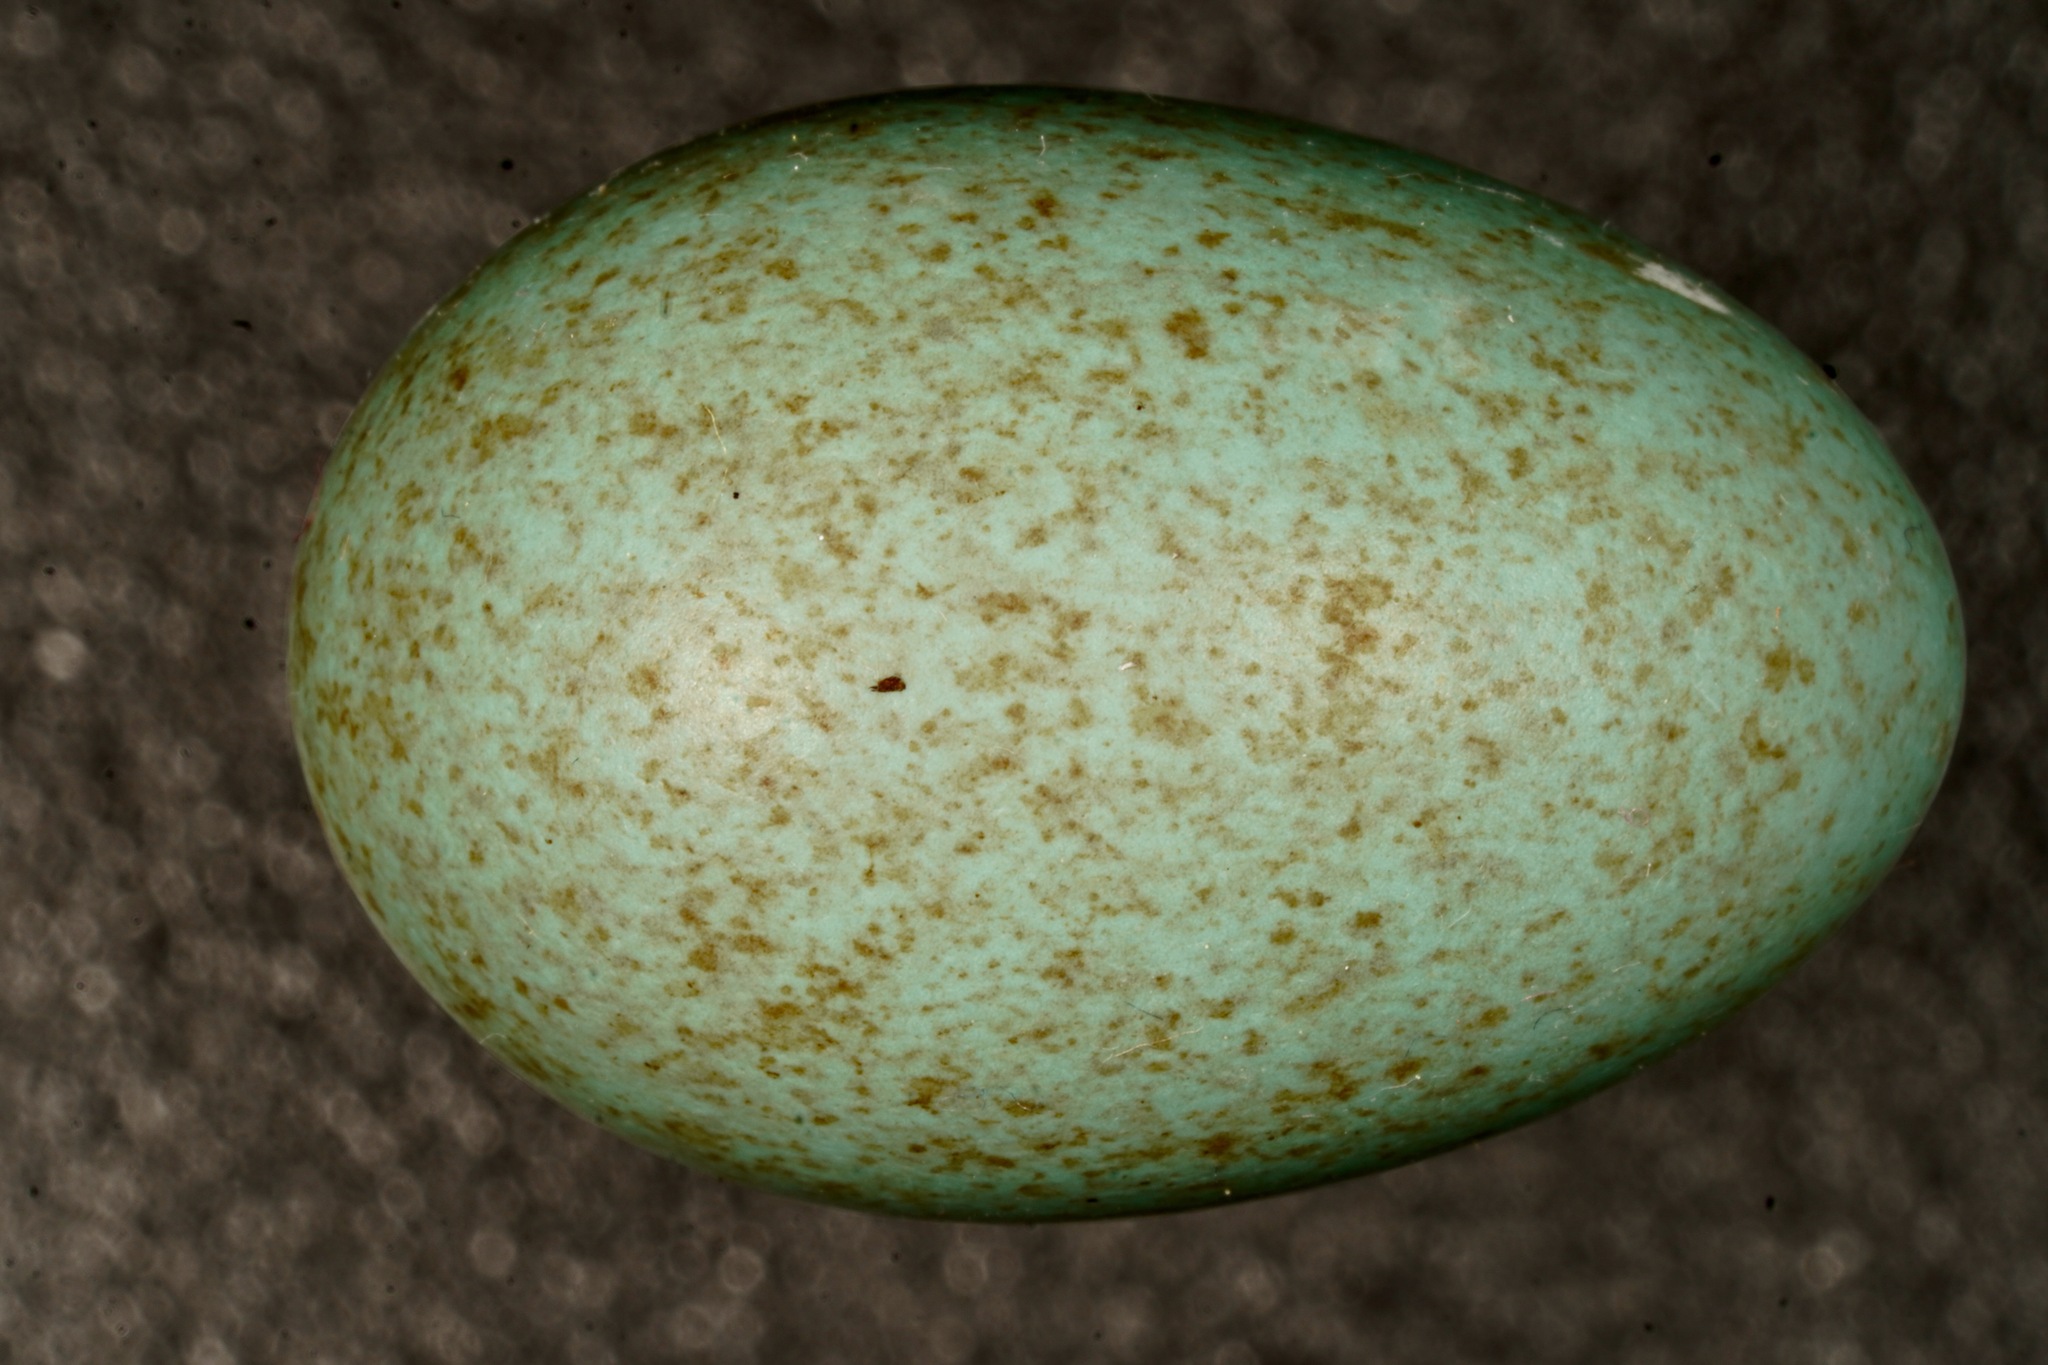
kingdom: Animalia
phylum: Chordata
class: Aves
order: Passeriformes
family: Turdidae
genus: Turdus
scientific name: Turdus merula
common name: Common blackbird
